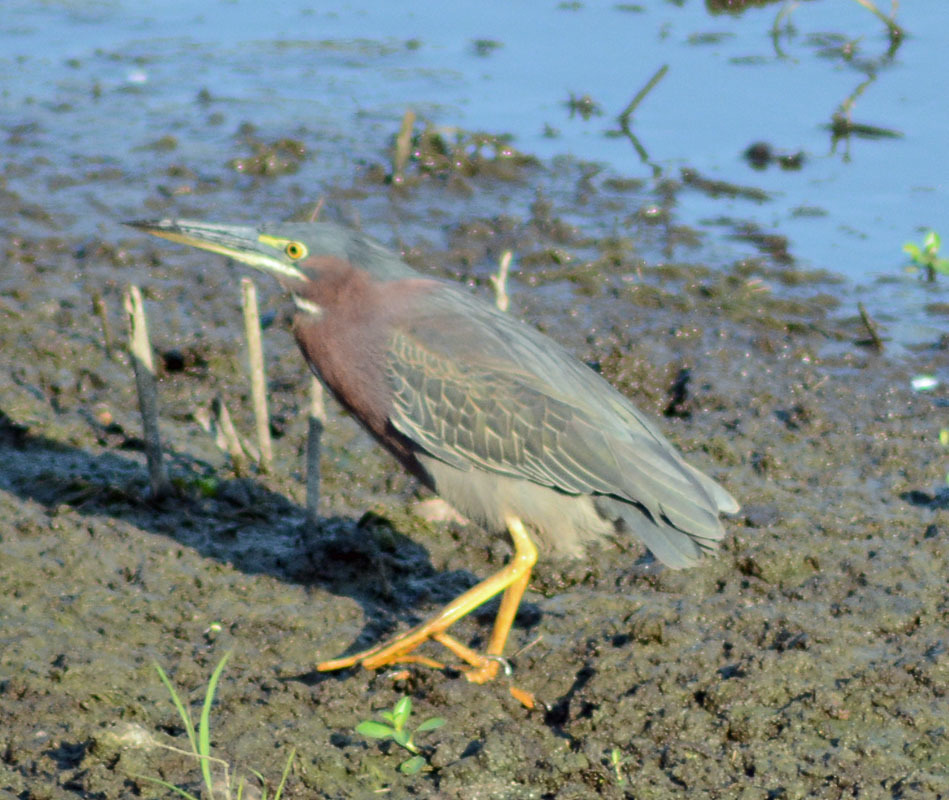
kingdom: Animalia
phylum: Chordata
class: Aves
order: Pelecaniformes
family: Ardeidae
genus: Butorides
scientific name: Butorides virescens
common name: Green heron
